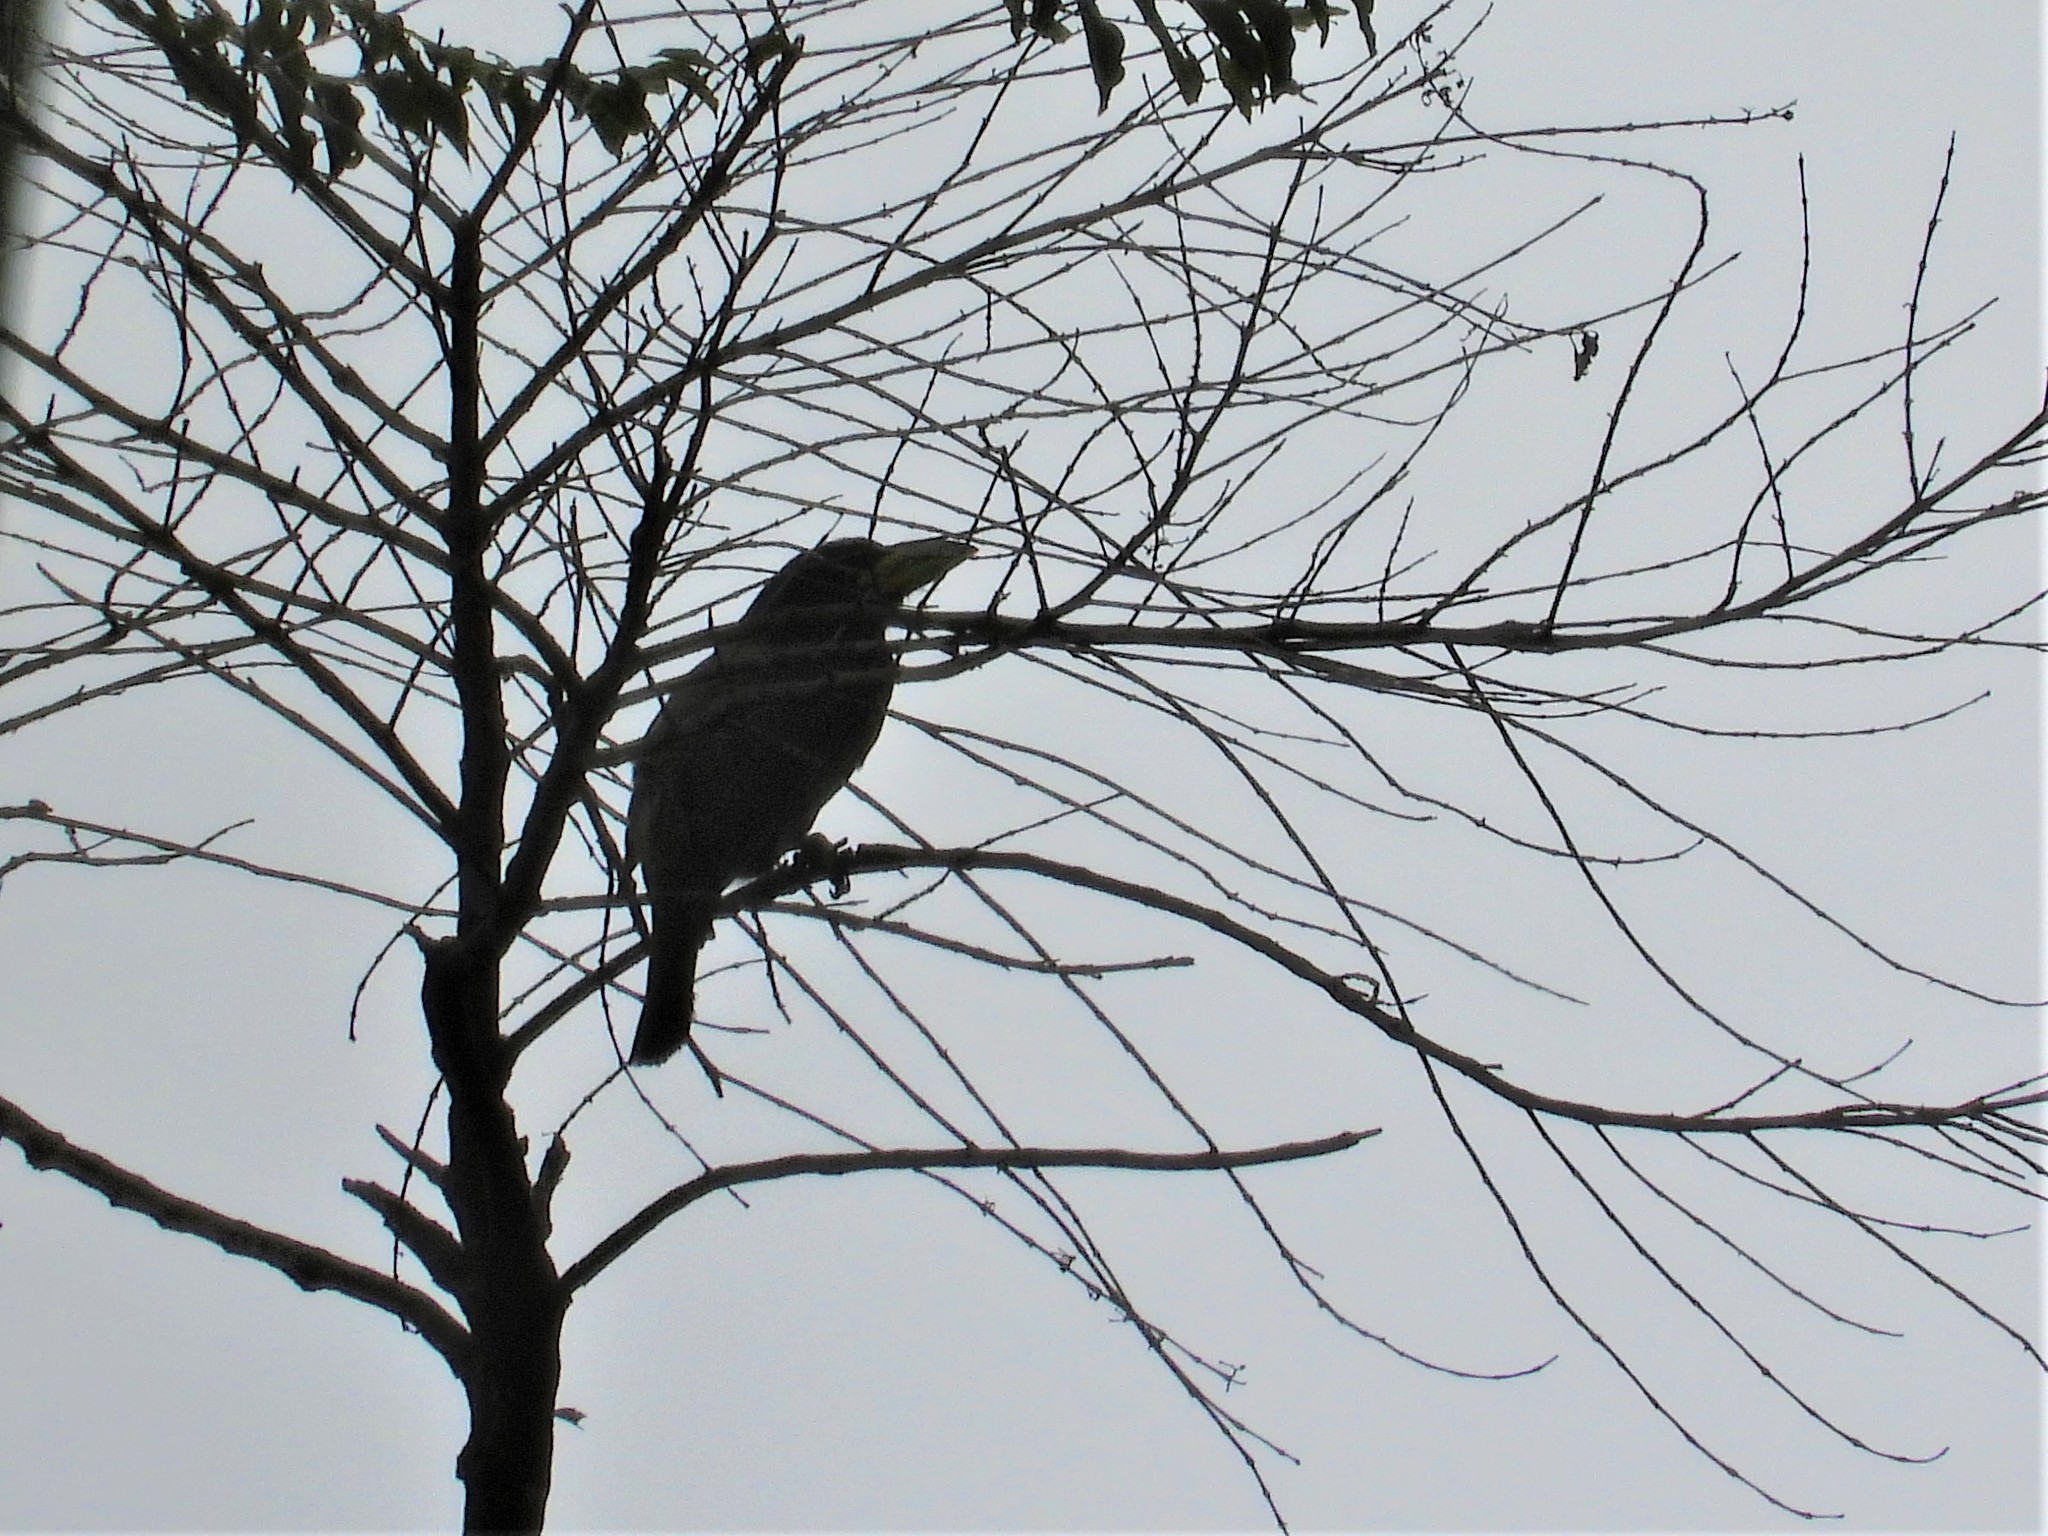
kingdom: Animalia
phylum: Chordata
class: Aves
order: Piciformes
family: Megalaimidae
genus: Psilopogon
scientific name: Psilopogon virens
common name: Great barbet
